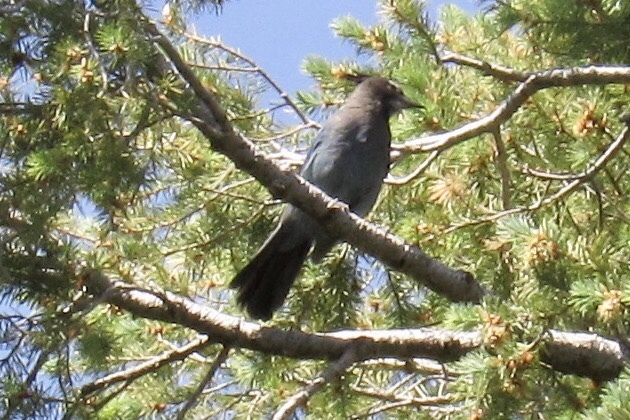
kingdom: Animalia
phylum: Chordata
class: Aves
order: Passeriformes
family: Corvidae
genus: Cyanocitta
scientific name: Cyanocitta stelleri
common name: Steller's jay
